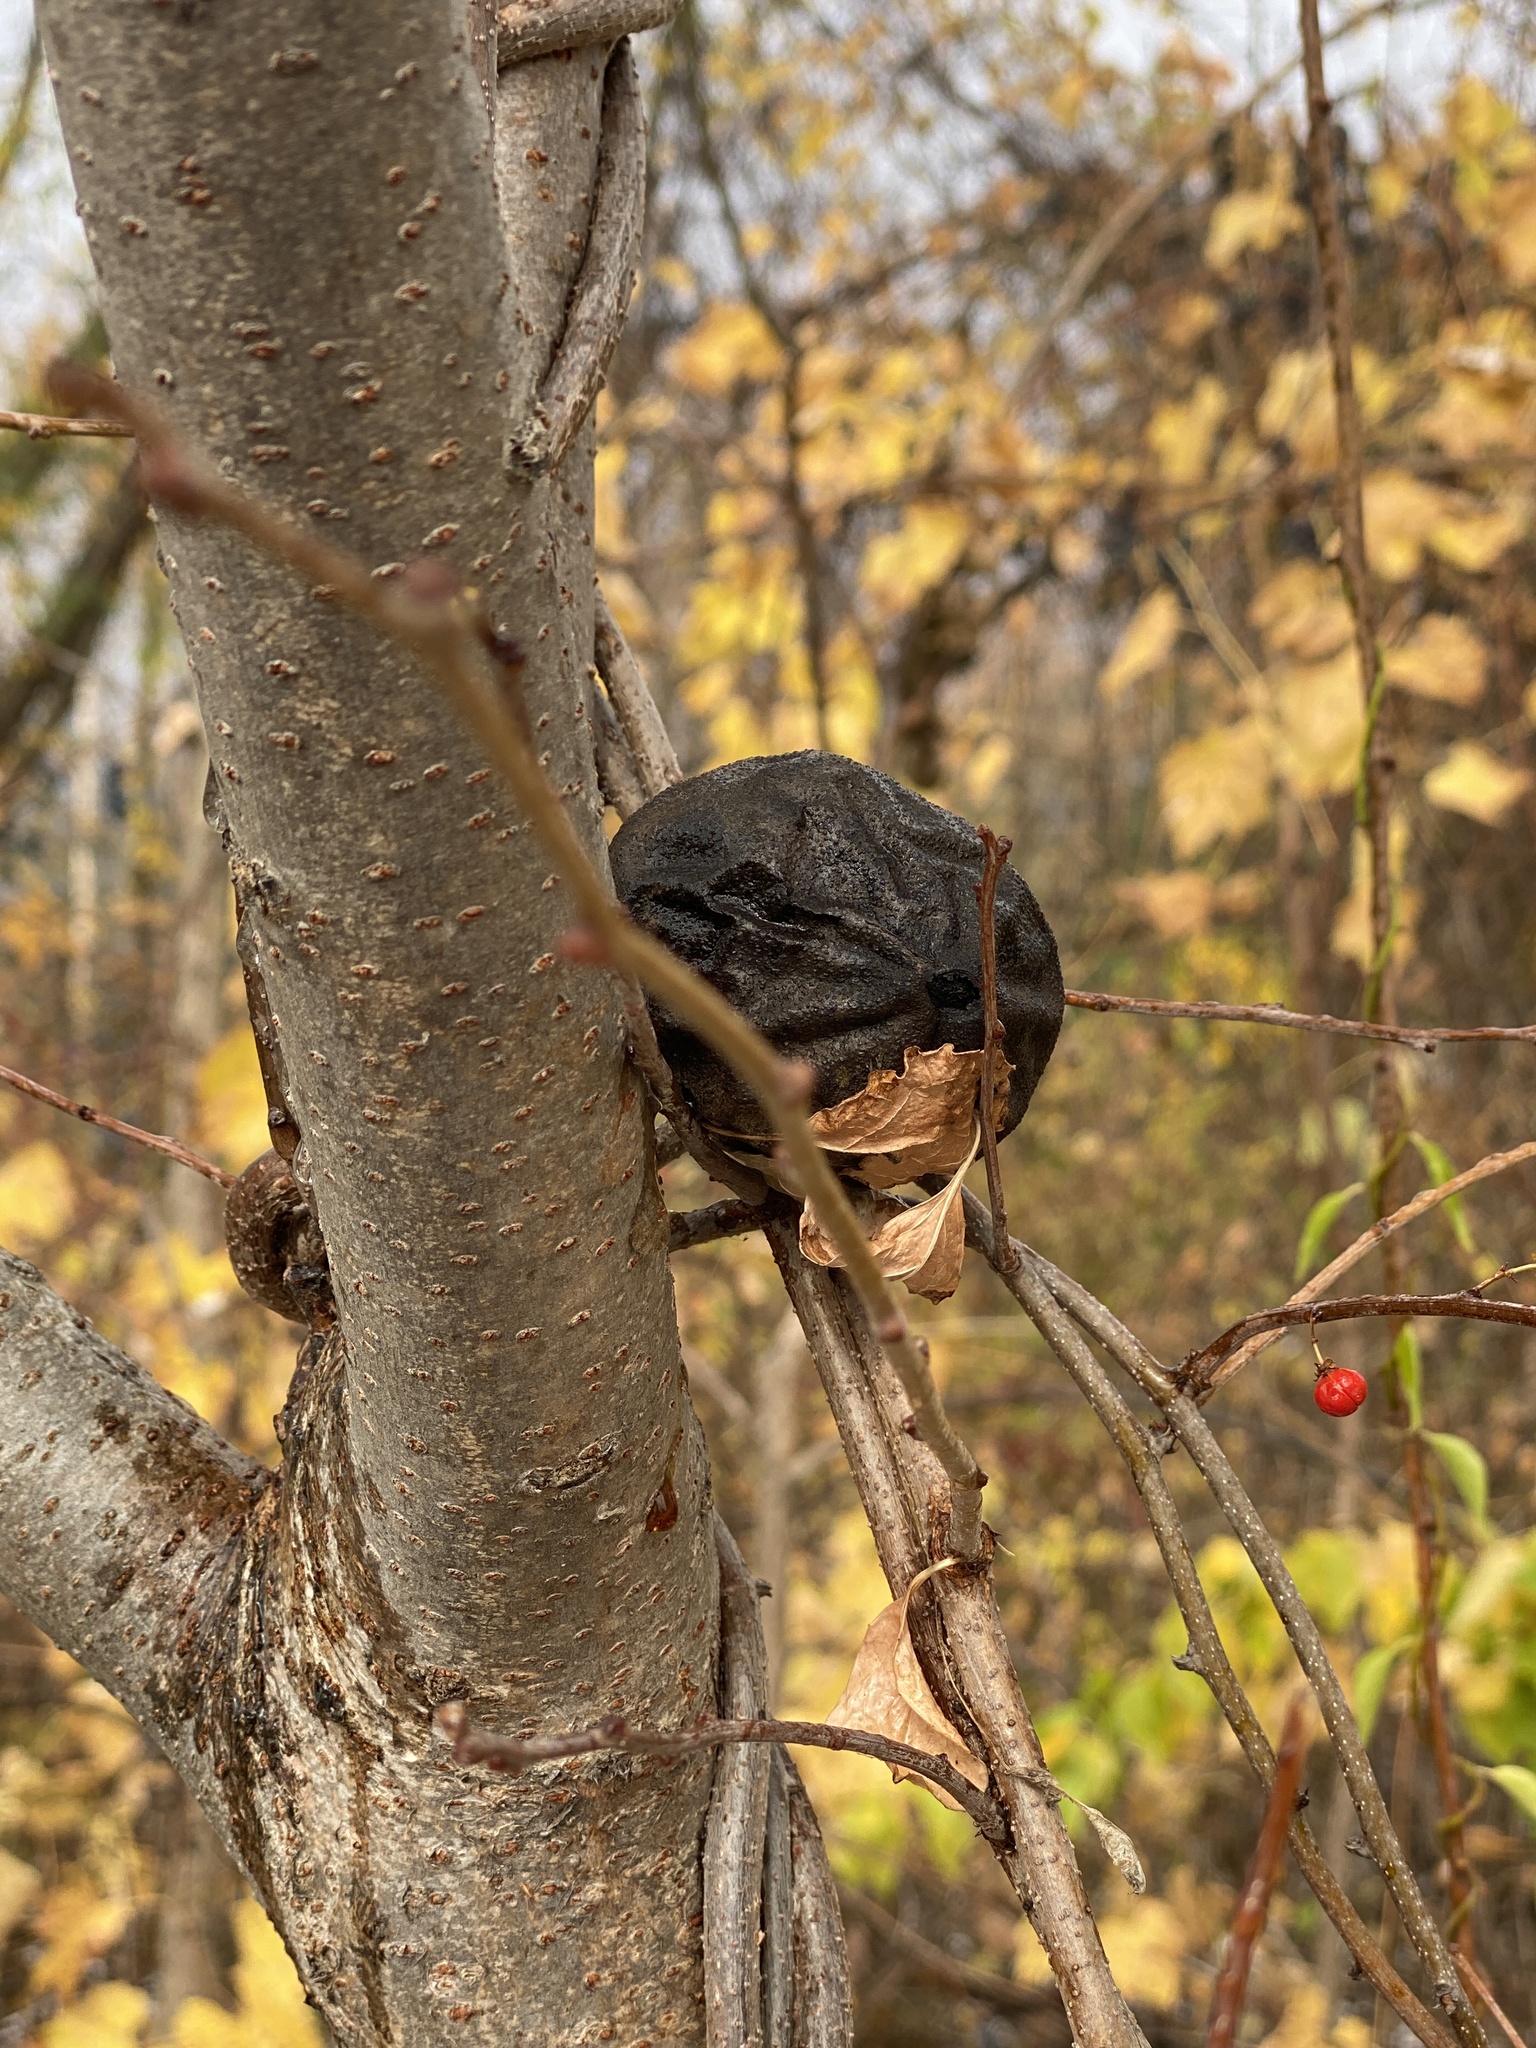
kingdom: Plantae
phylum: Tracheophyta
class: Magnoliopsida
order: Fagales
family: Juglandaceae
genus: Juglans
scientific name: Juglans nigra
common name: Black walnut
